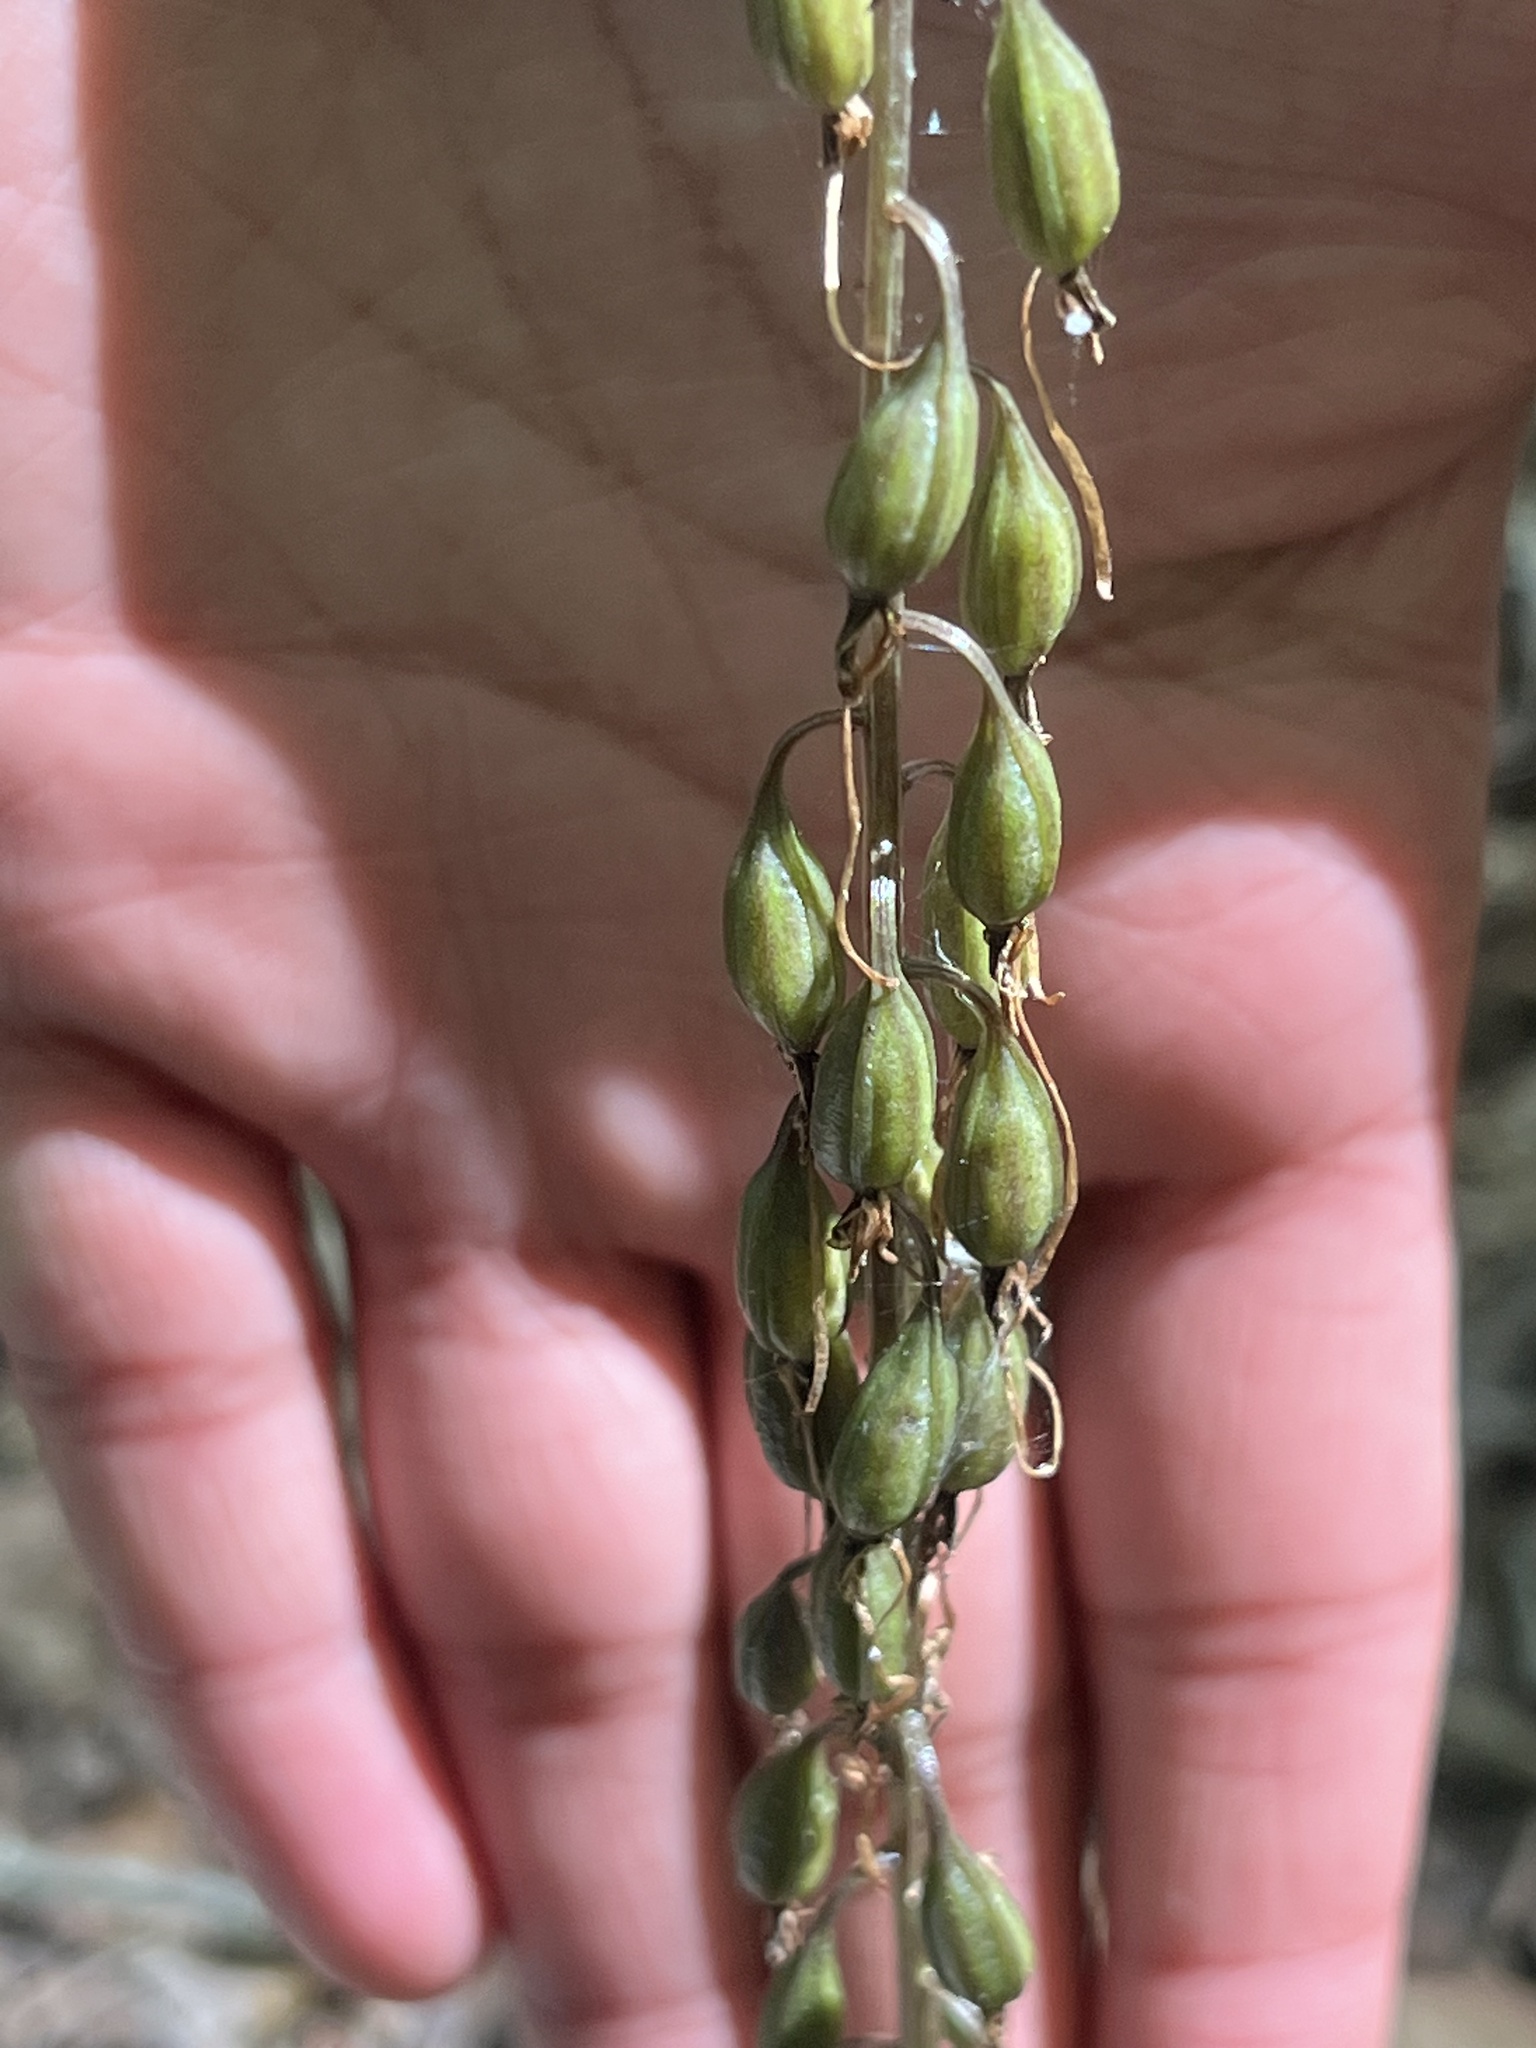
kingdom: Plantae
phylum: Tracheophyta
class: Liliopsida
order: Asparagales
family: Orchidaceae
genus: Tipularia
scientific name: Tipularia discolor
